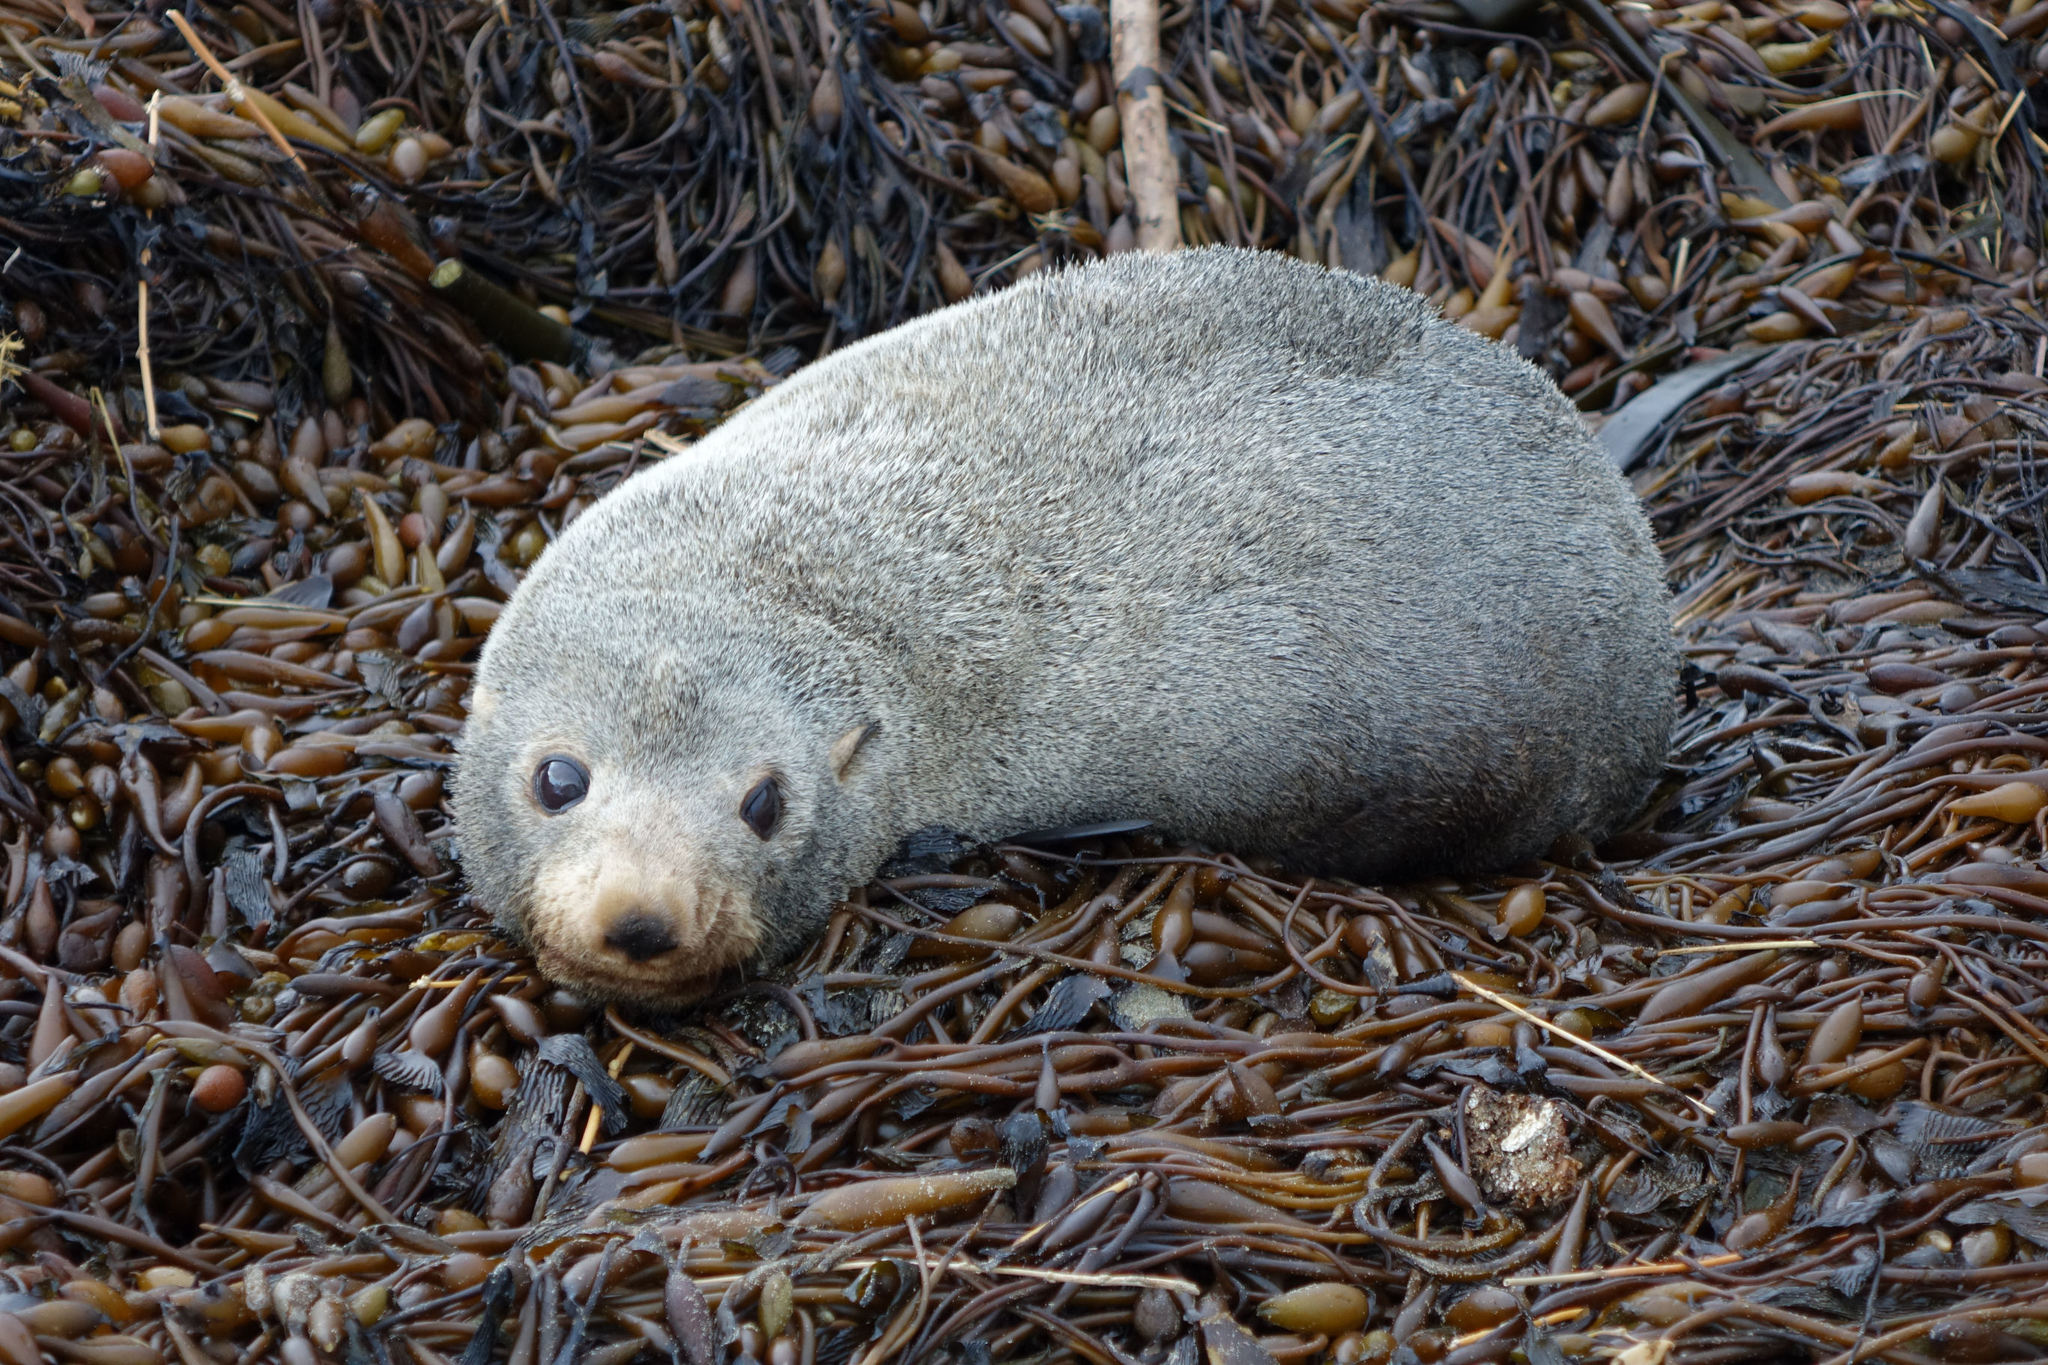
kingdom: Animalia
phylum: Chordata
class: Mammalia
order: Carnivora
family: Otariidae
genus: Arctocephalus
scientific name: Arctocephalus forsteri
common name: New zealand fur seal
